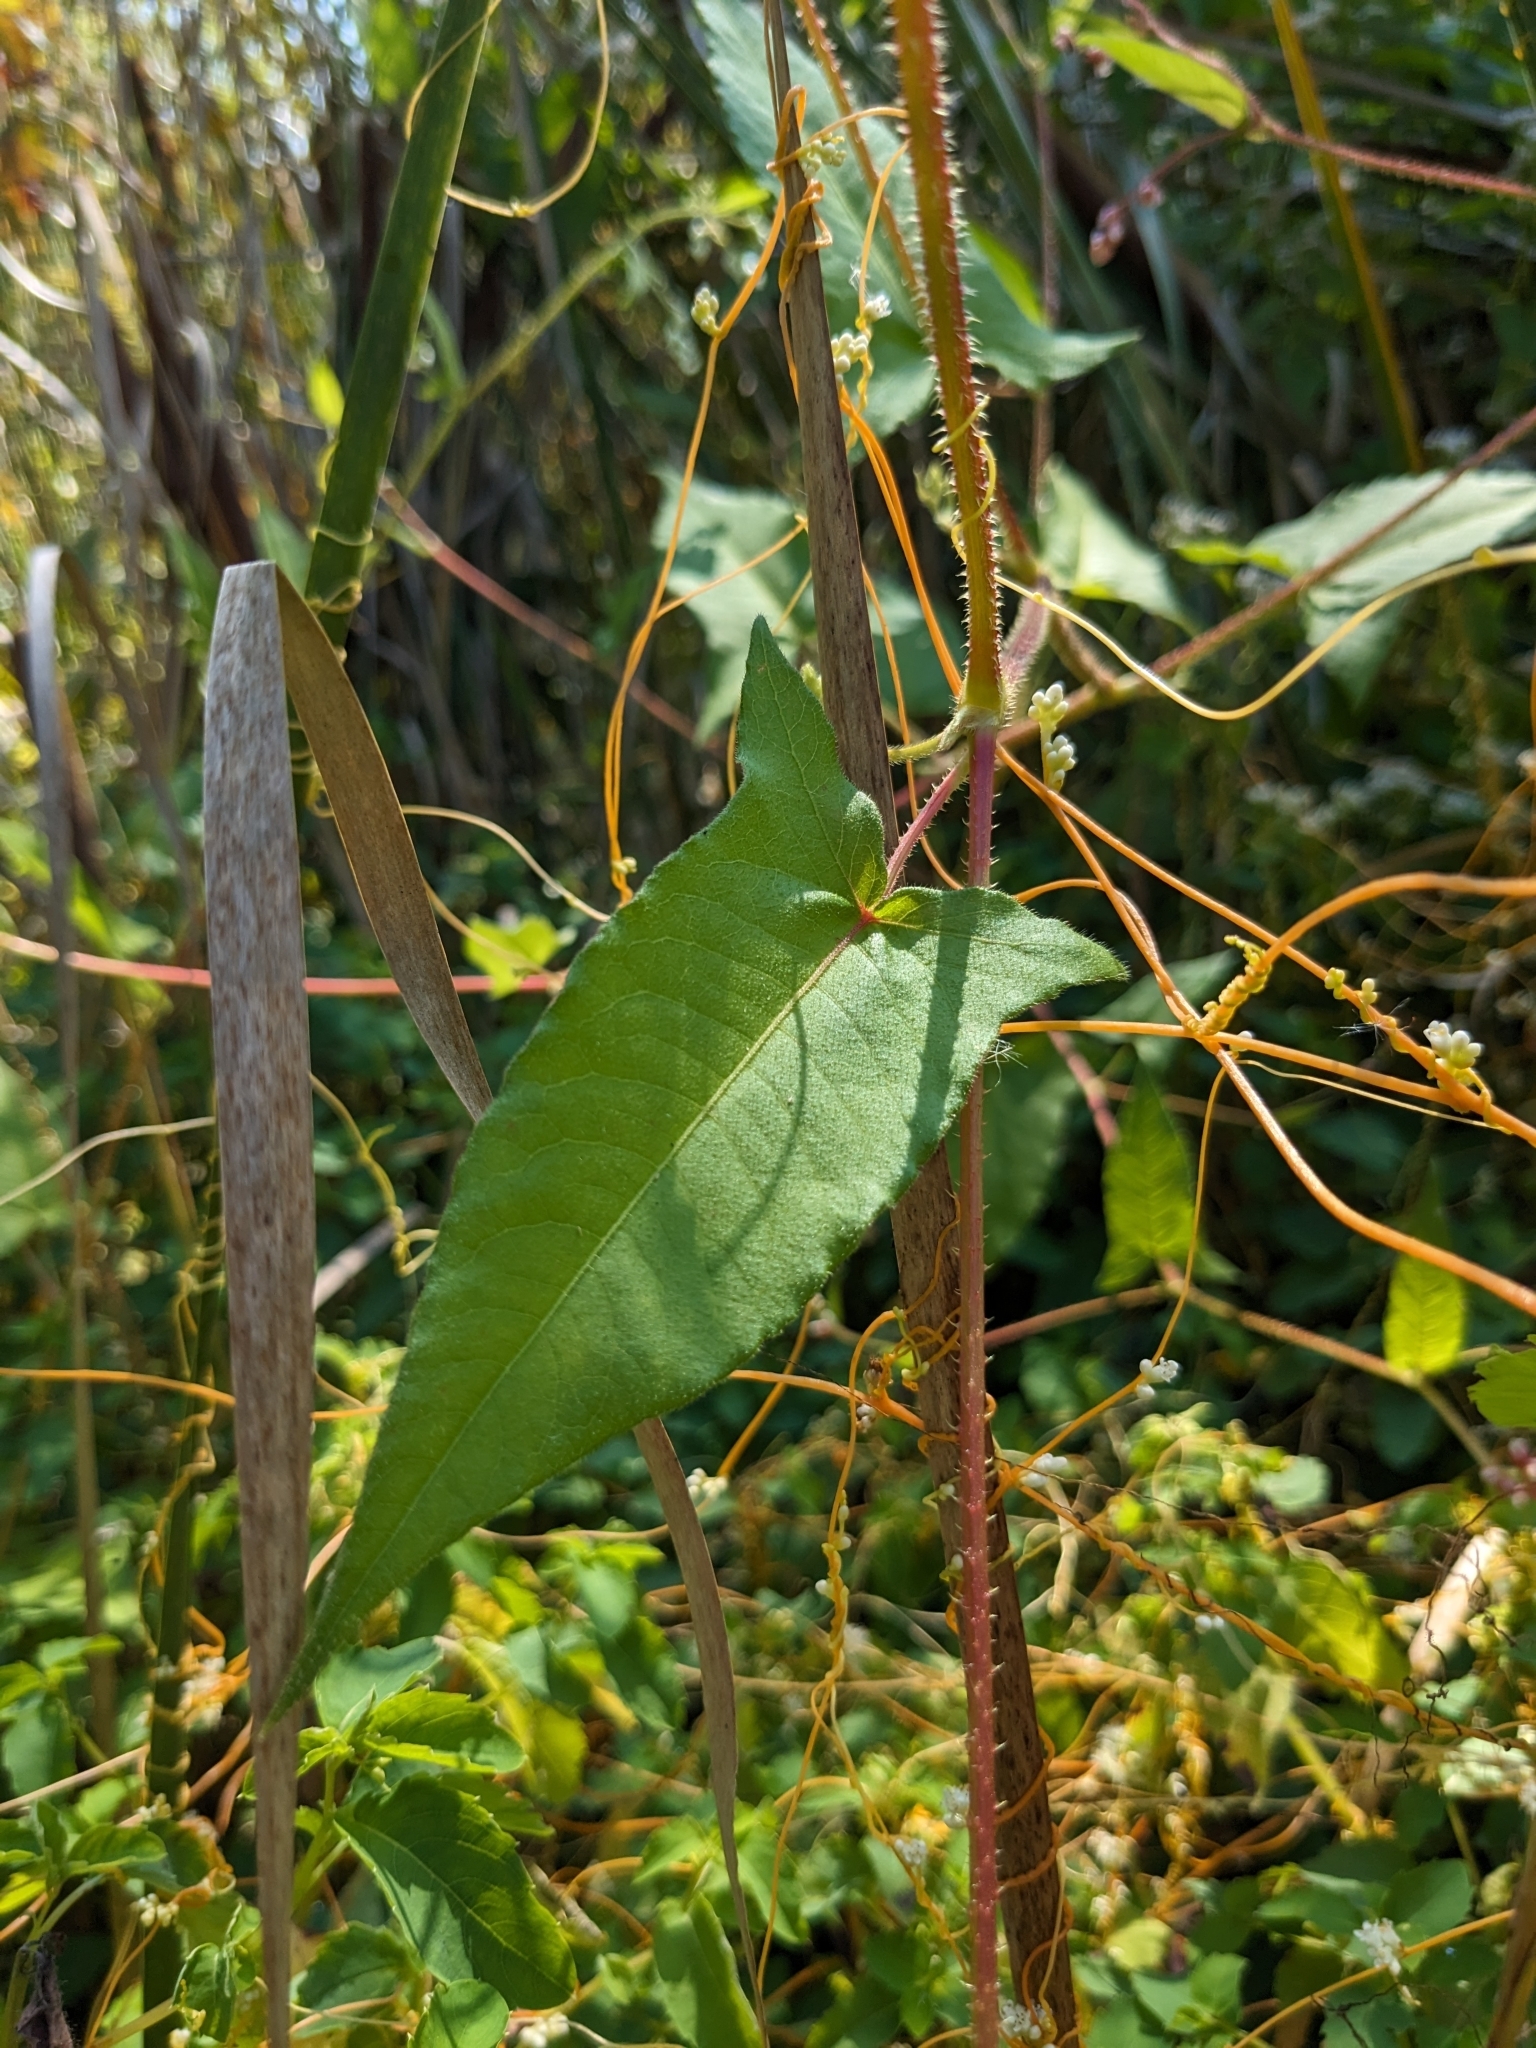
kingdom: Plantae
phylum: Tracheophyta
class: Magnoliopsida
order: Caryophyllales
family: Polygonaceae
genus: Persicaria
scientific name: Persicaria arifolia
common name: Halberd-leaved tear-thumb
